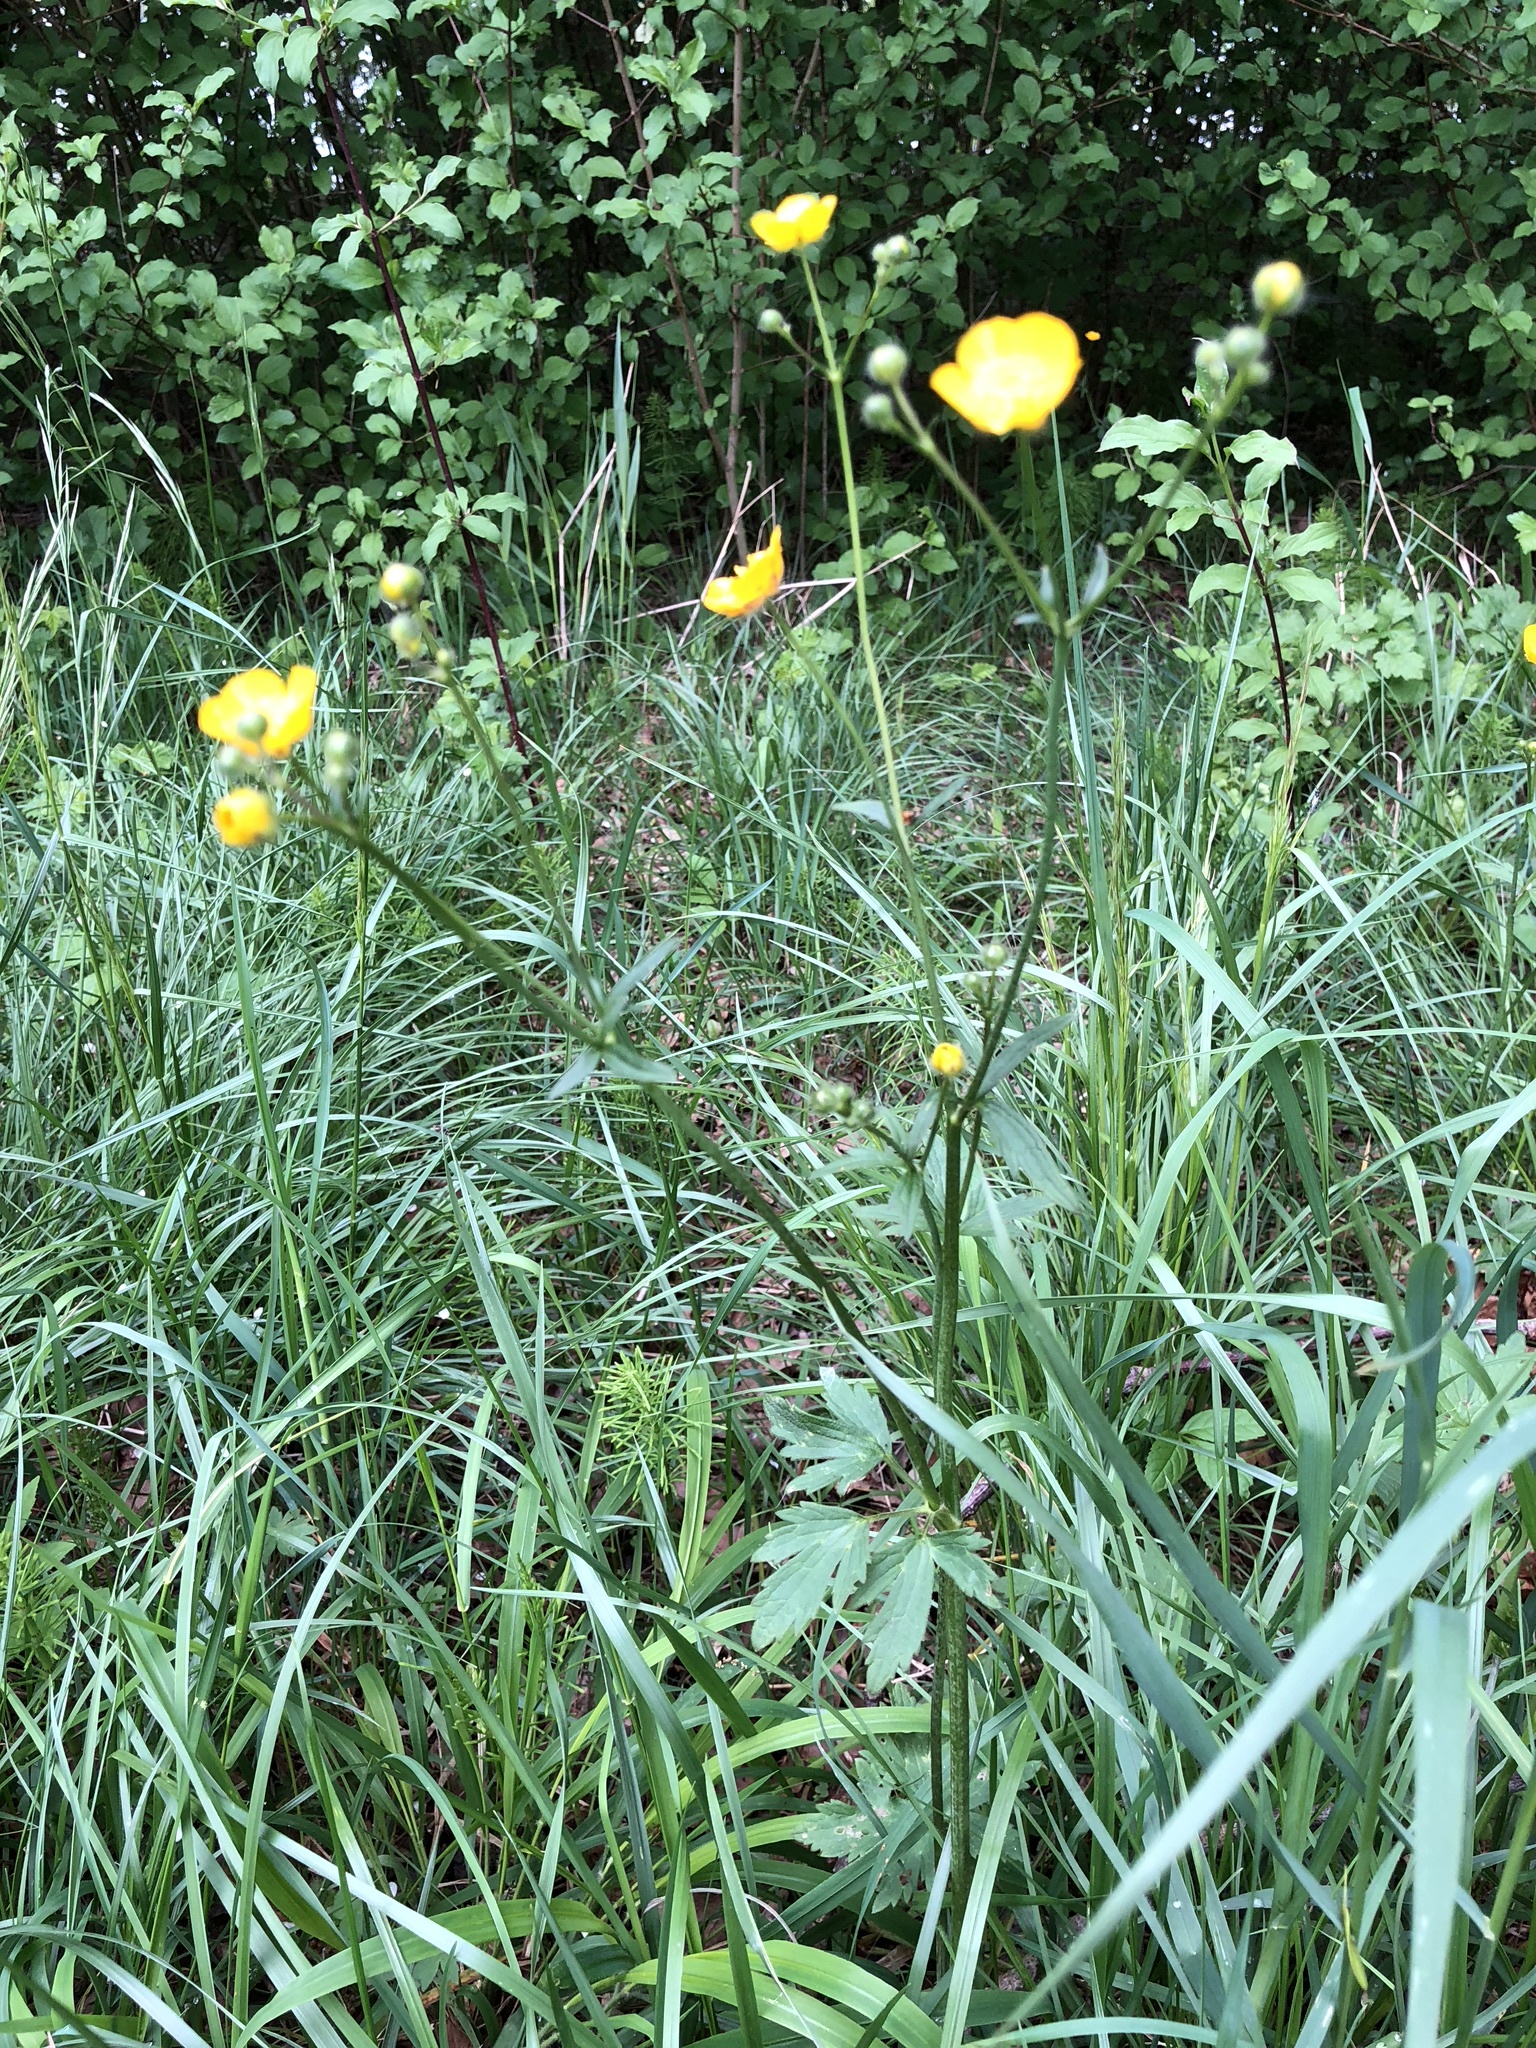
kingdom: Plantae
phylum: Tracheophyta
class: Magnoliopsida
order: Ranunculales
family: Ranunculaceae
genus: Ranunculus
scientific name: Ranunculus acris
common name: Meadow buttercup
